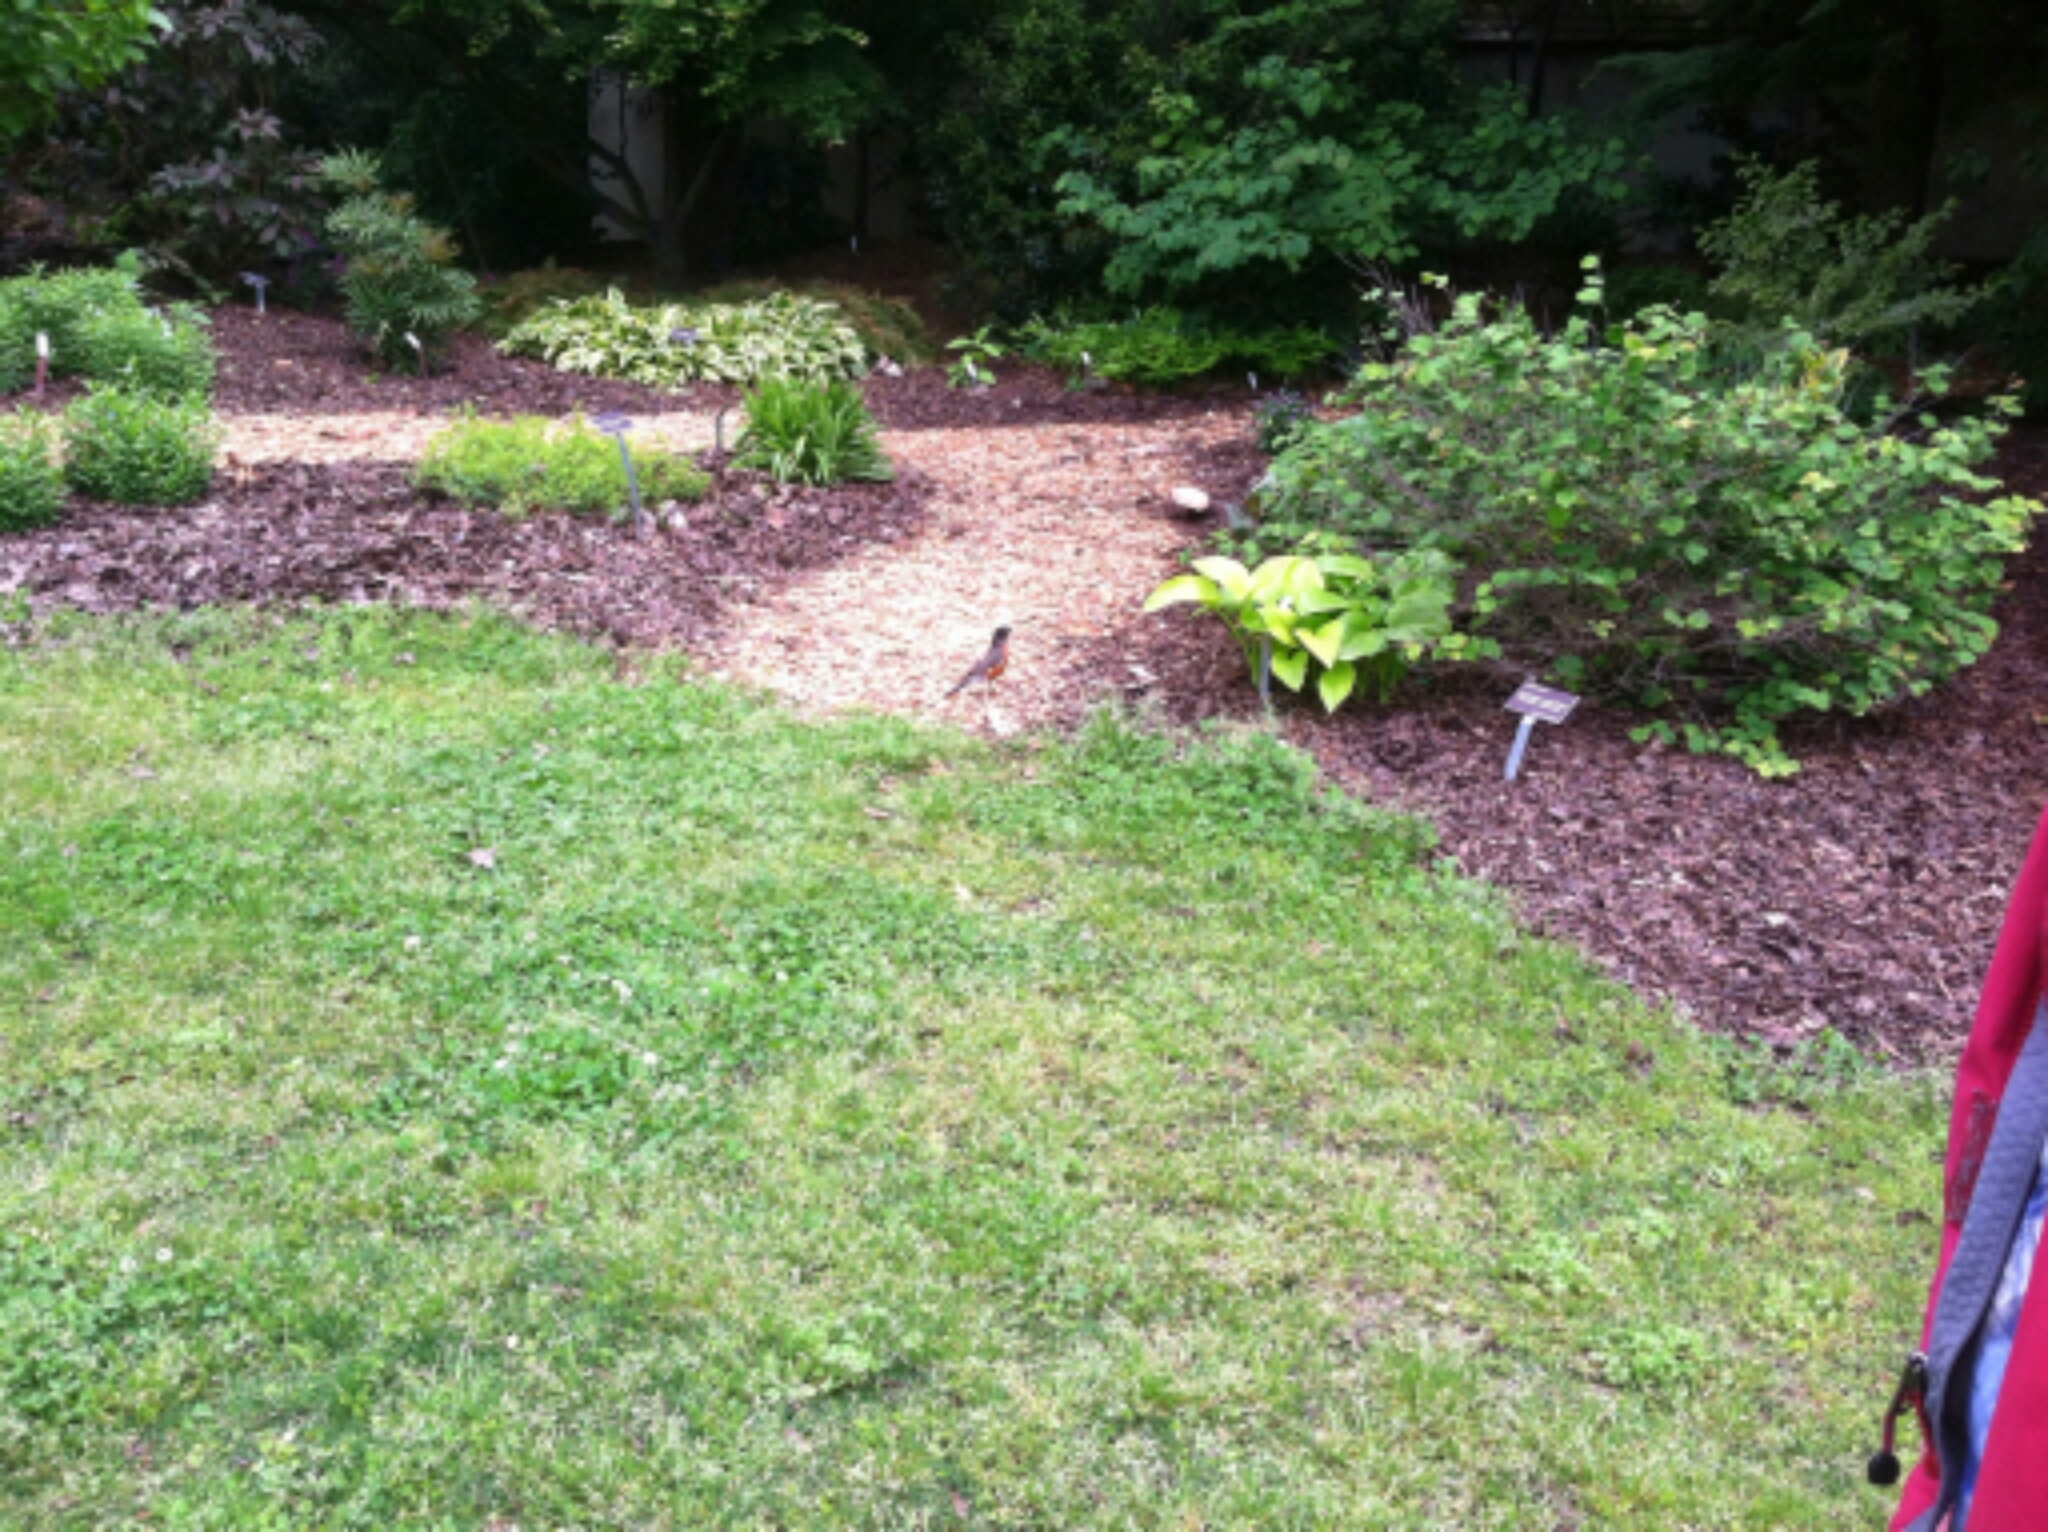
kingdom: Animalia
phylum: Chordata
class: Aves
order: Passeriformes
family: Turdidae
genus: Turdus
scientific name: Turdus migratorius
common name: American robin
